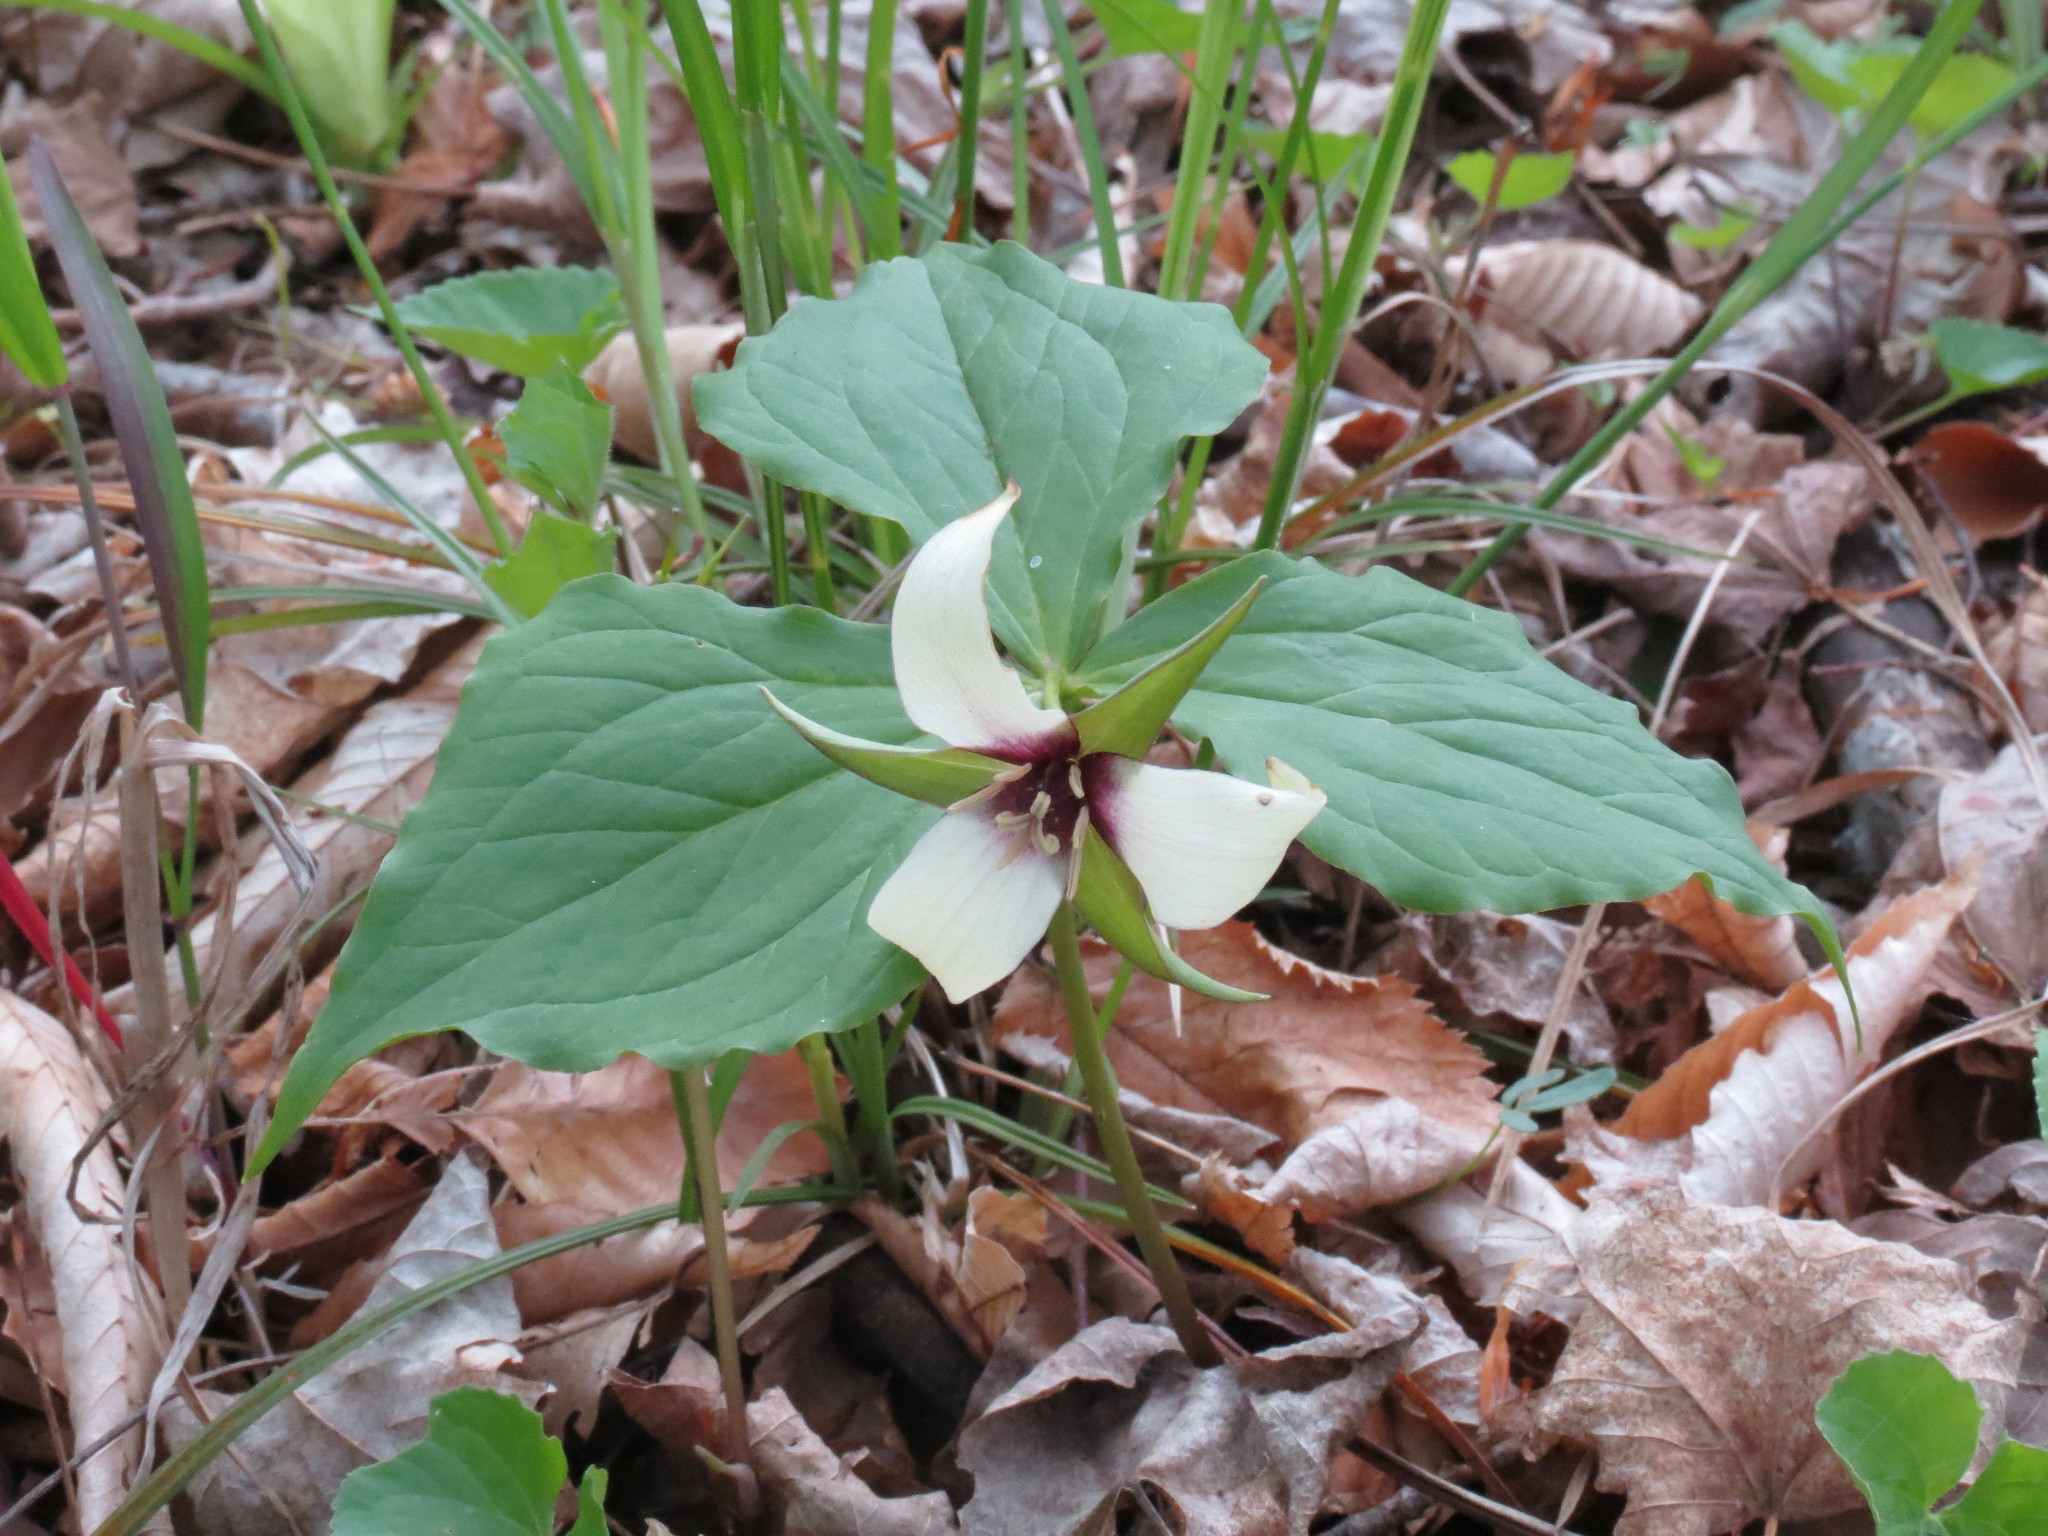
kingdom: Plantae
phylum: Tracheophyta
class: Liliopsida
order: Liliales
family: Melanthiaceae
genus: Trillium
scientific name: Trillium erectum
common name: Purple trillium
